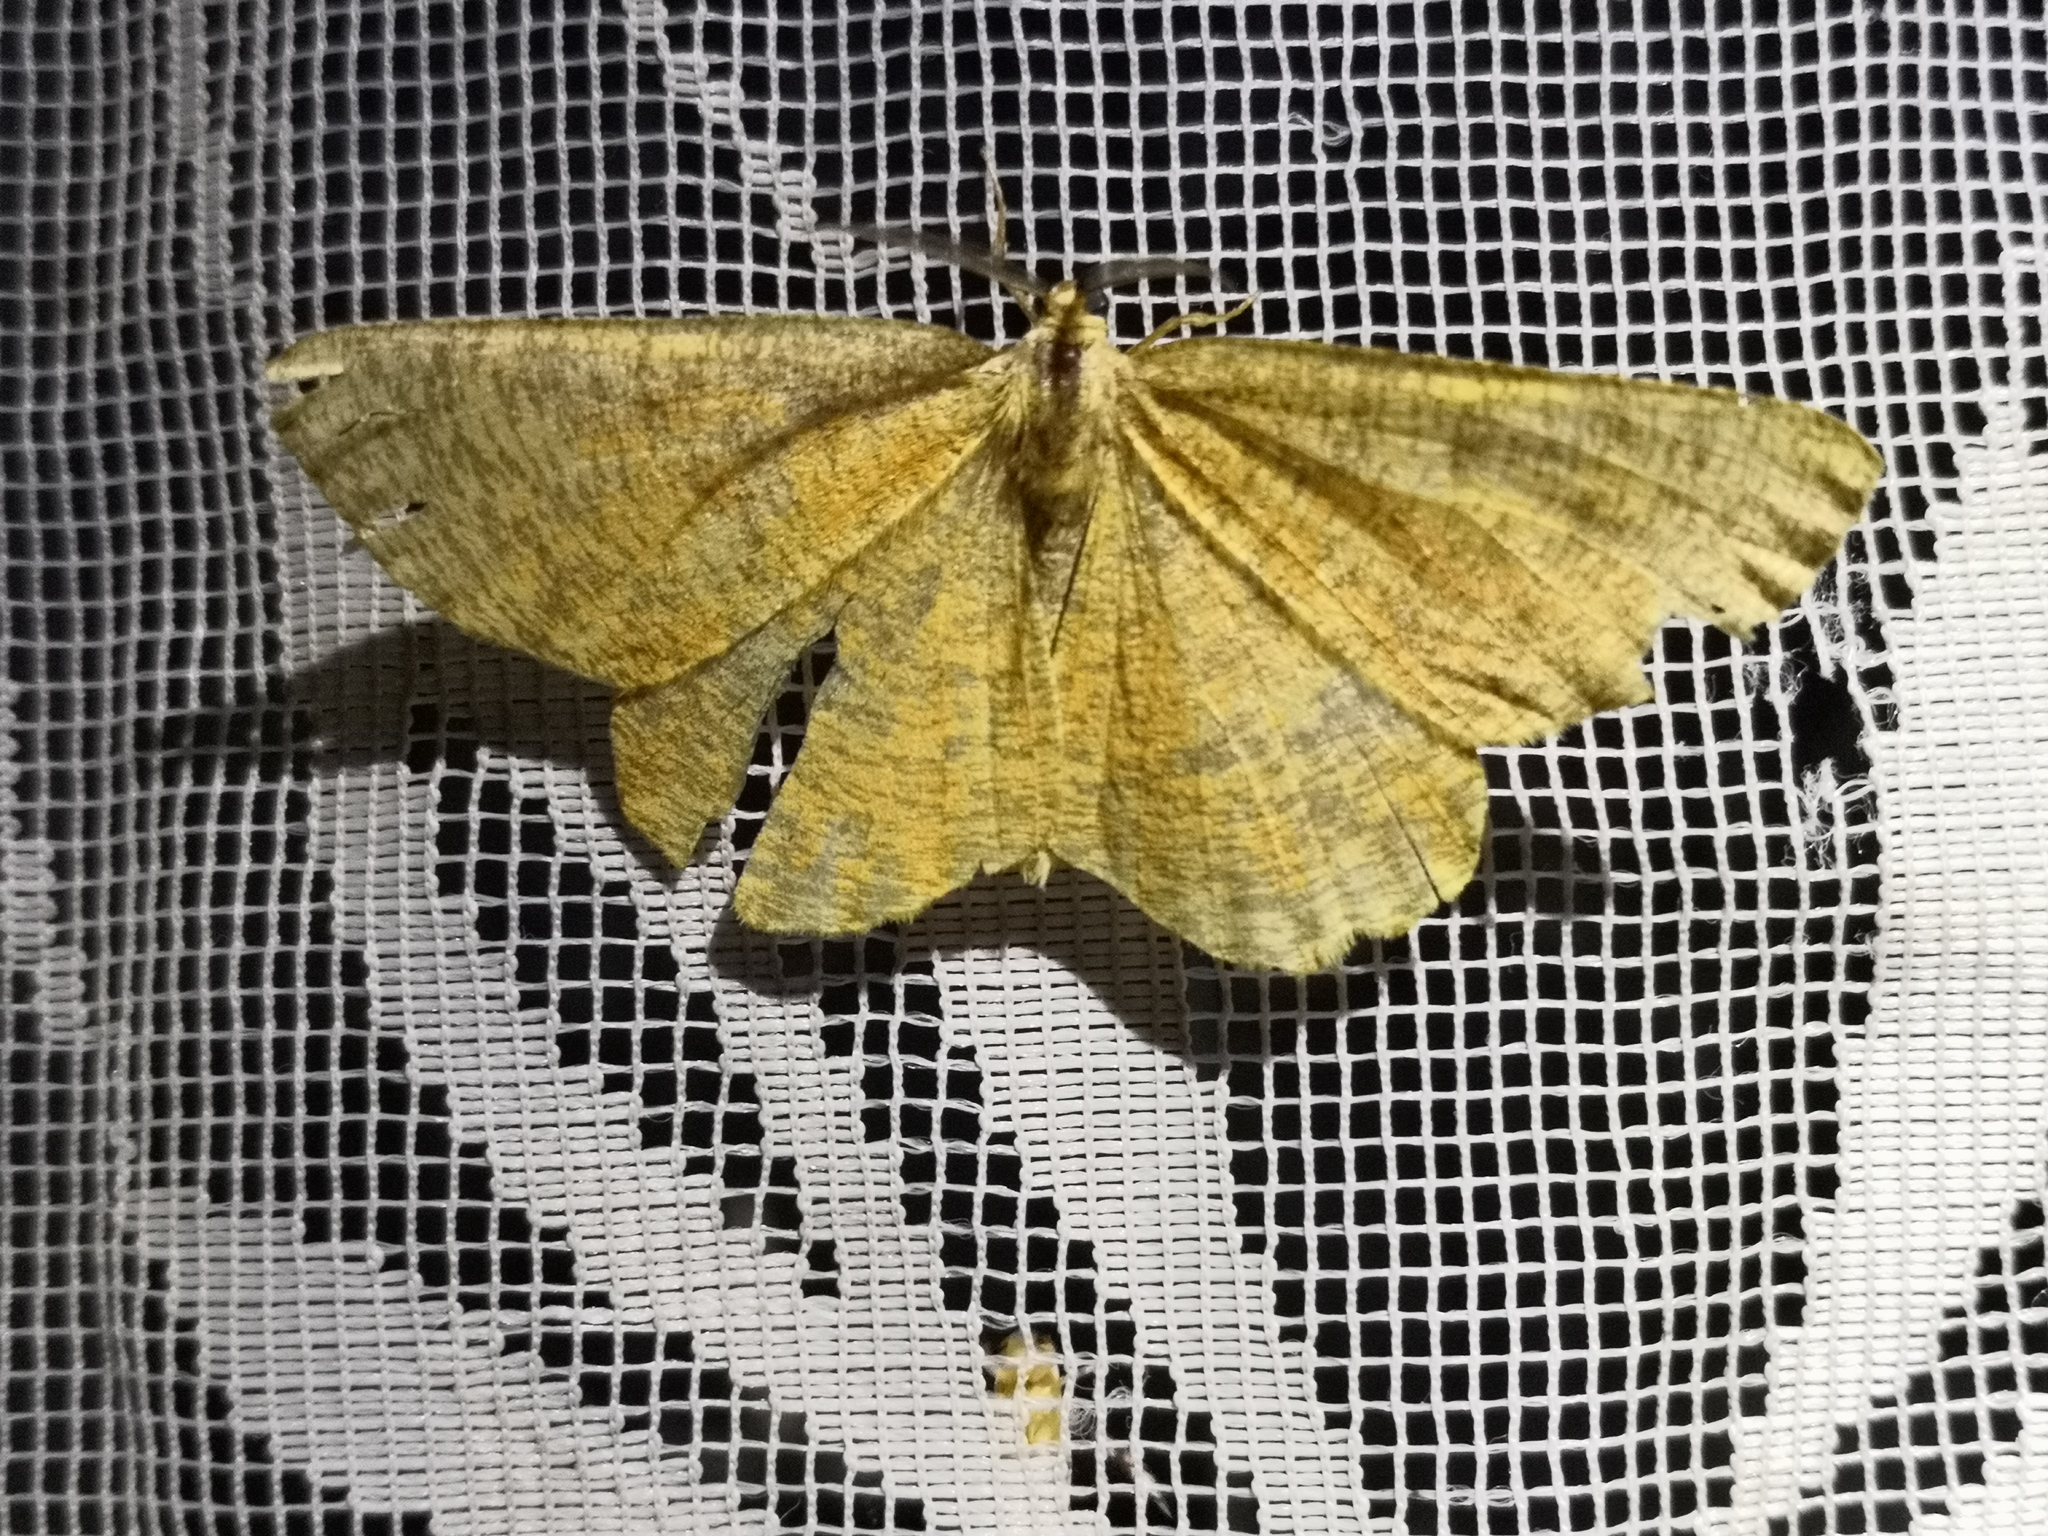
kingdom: Animalia
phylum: Arthropoda
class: Insecta
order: Lepidoptera
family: Geometridae
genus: Angerona
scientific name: Angerona prunaria
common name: Orange moth
